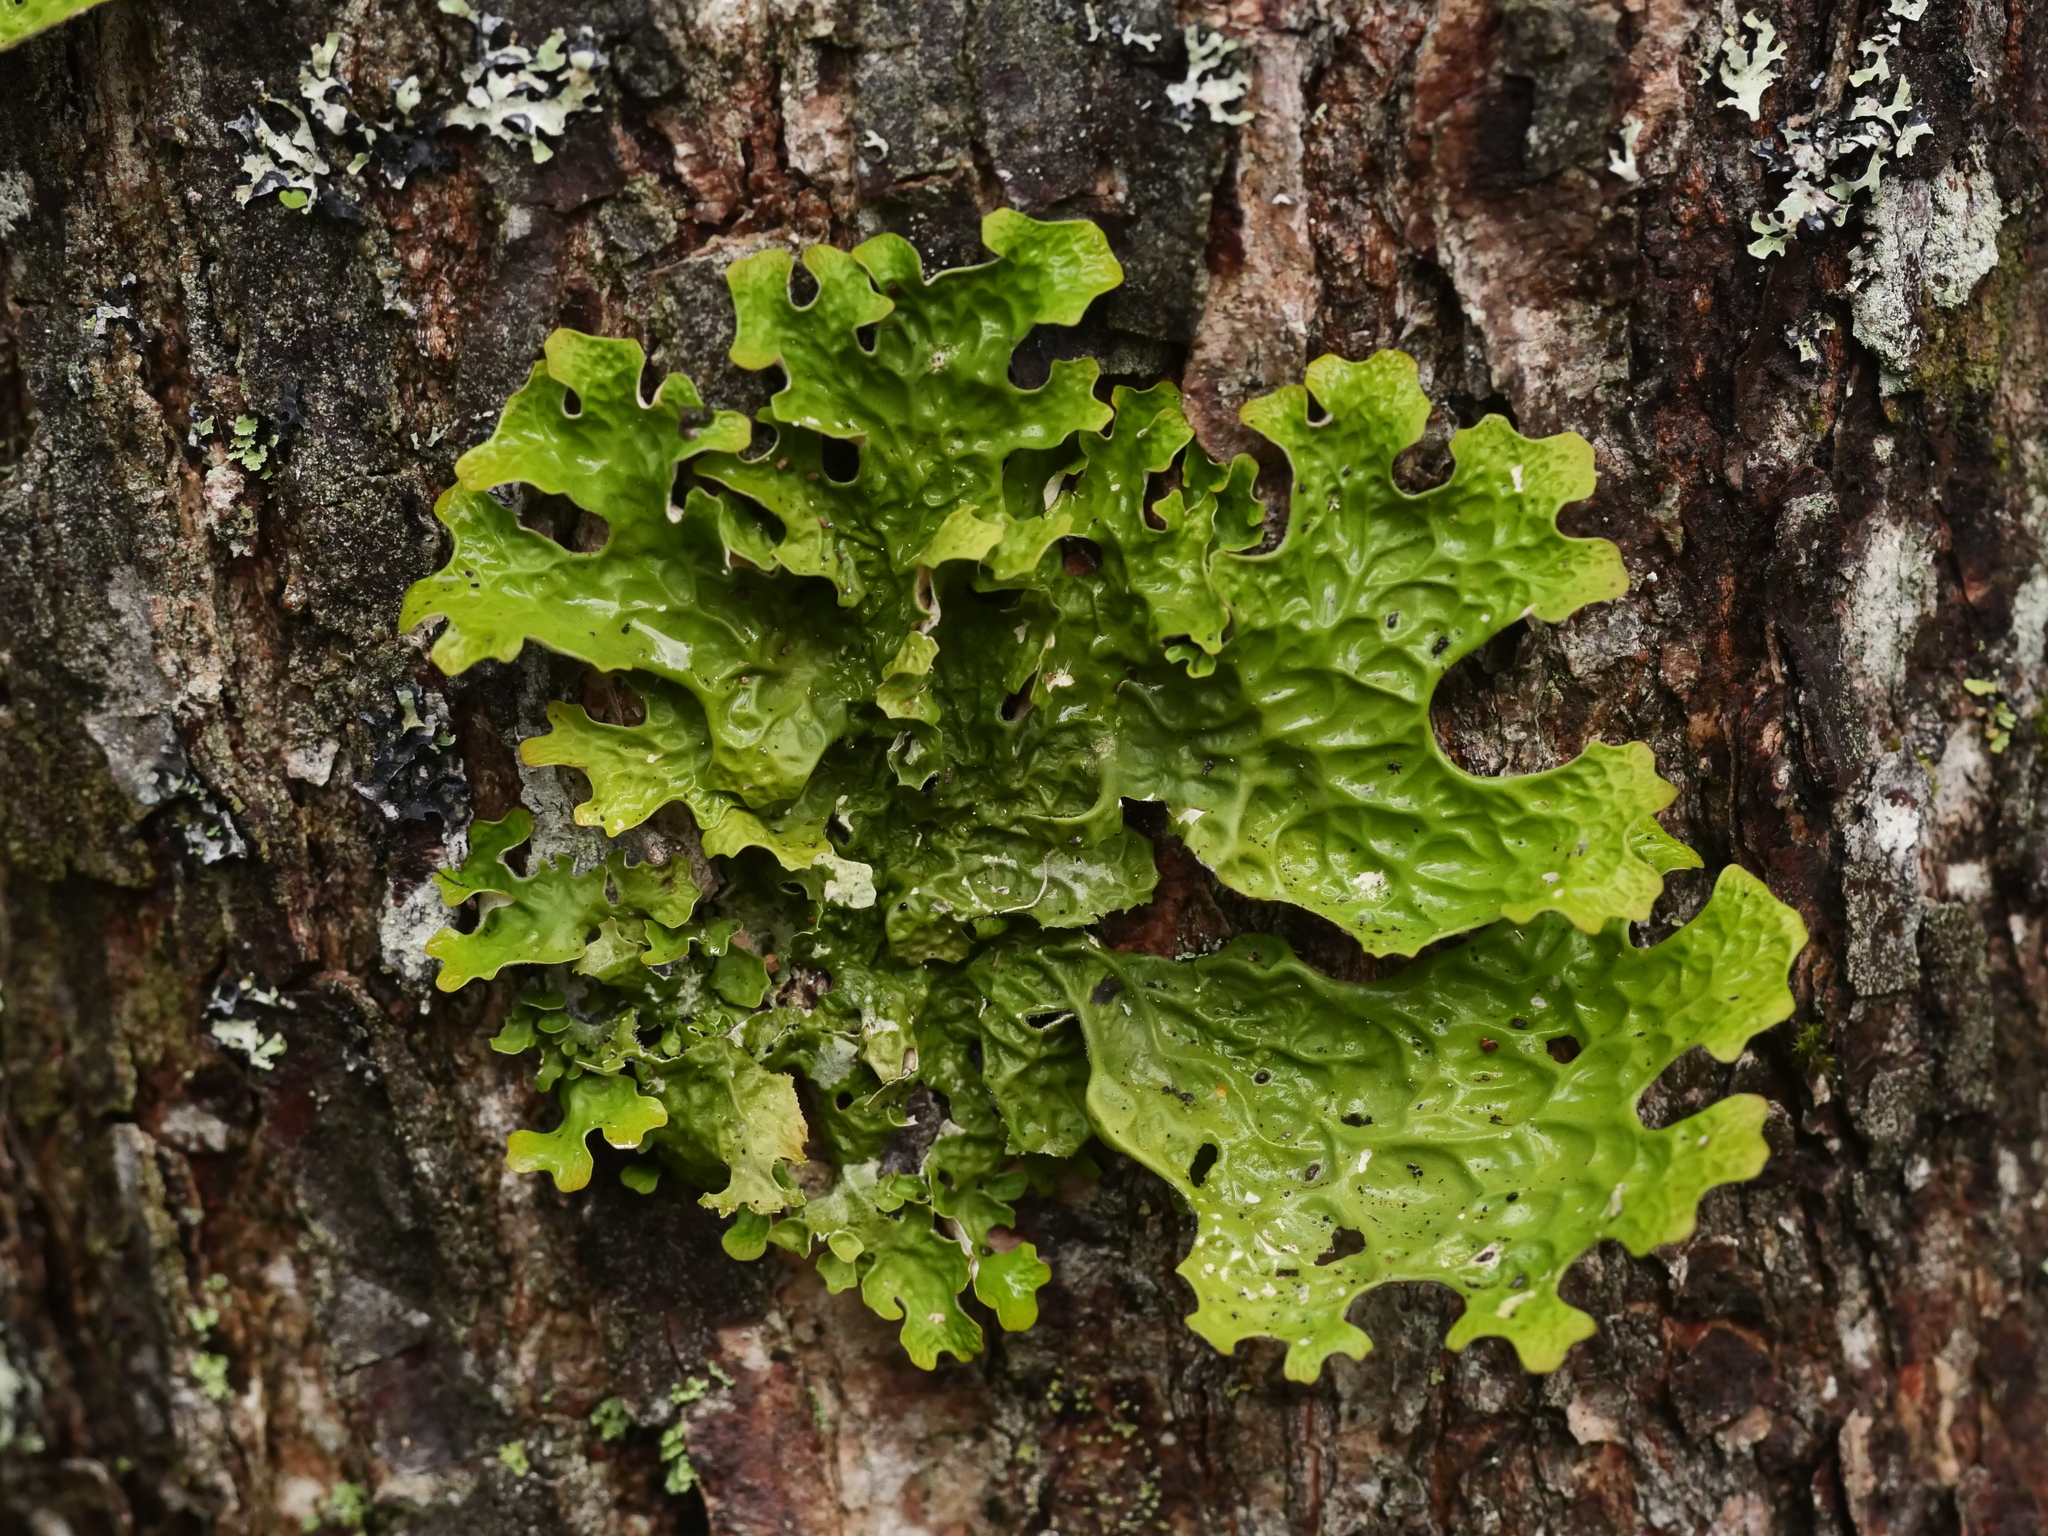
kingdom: Fungi
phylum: Ascomycota
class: Lecanoromycetes
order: Peltigerales
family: Lobariaceae
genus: Lobaria
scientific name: Lobaria pulmonaria
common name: Lungwort
